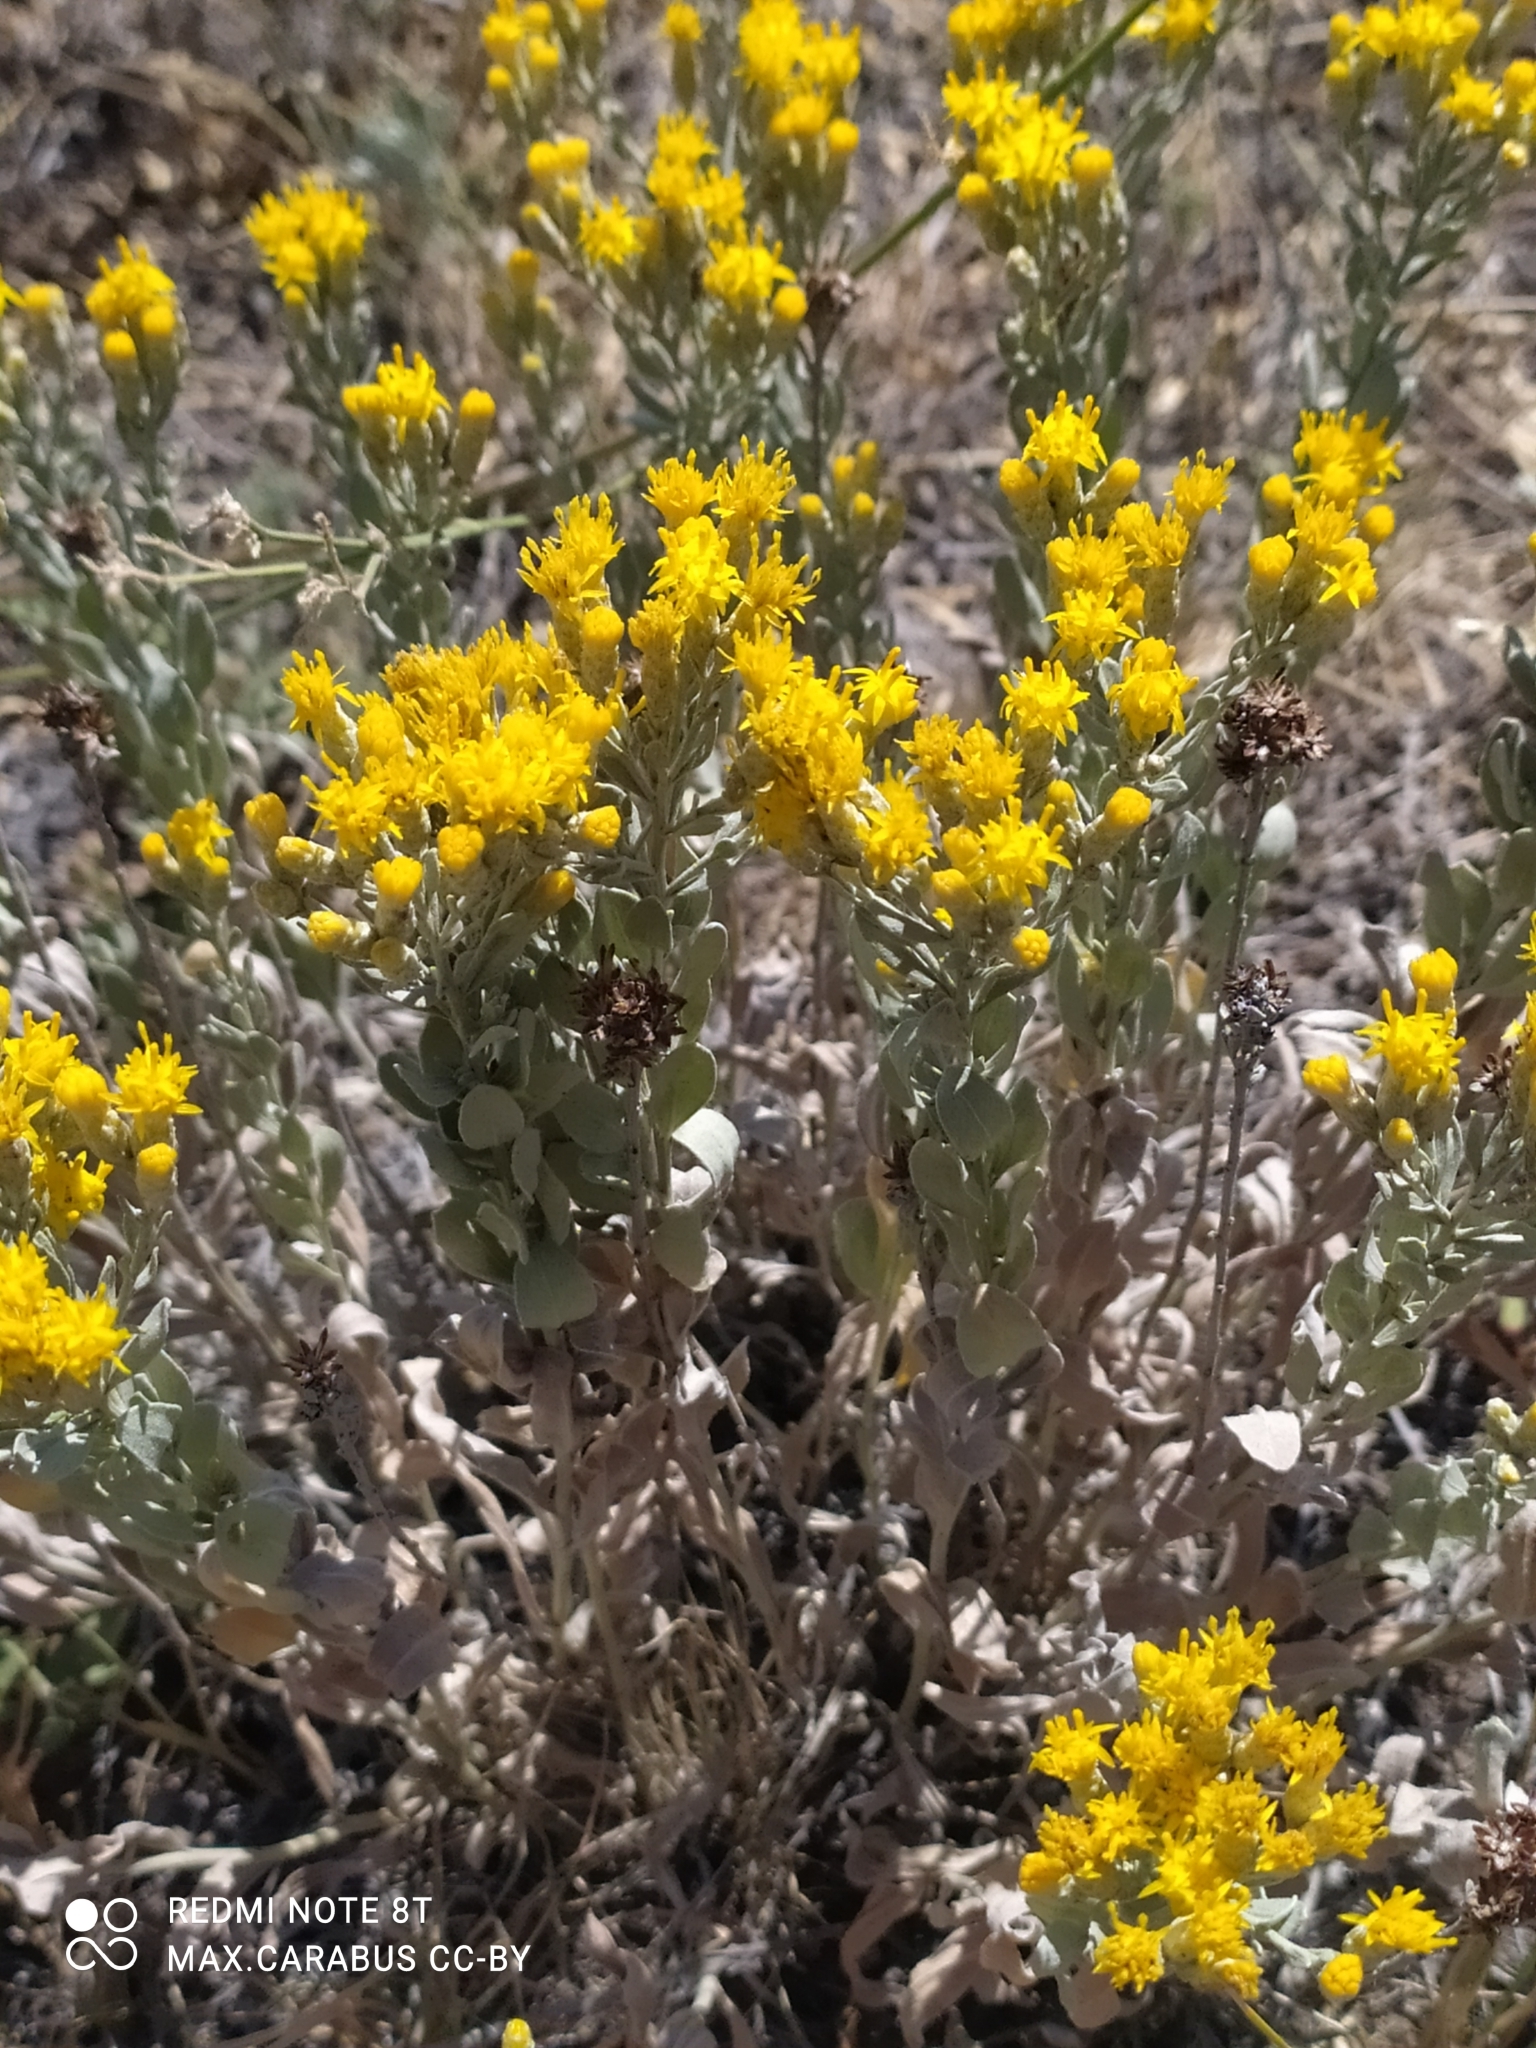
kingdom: Plantae
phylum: Tracheophyta
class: Magnoliopsida
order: Asterales
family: Asteraceae
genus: Galatella
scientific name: Galatella villosa
